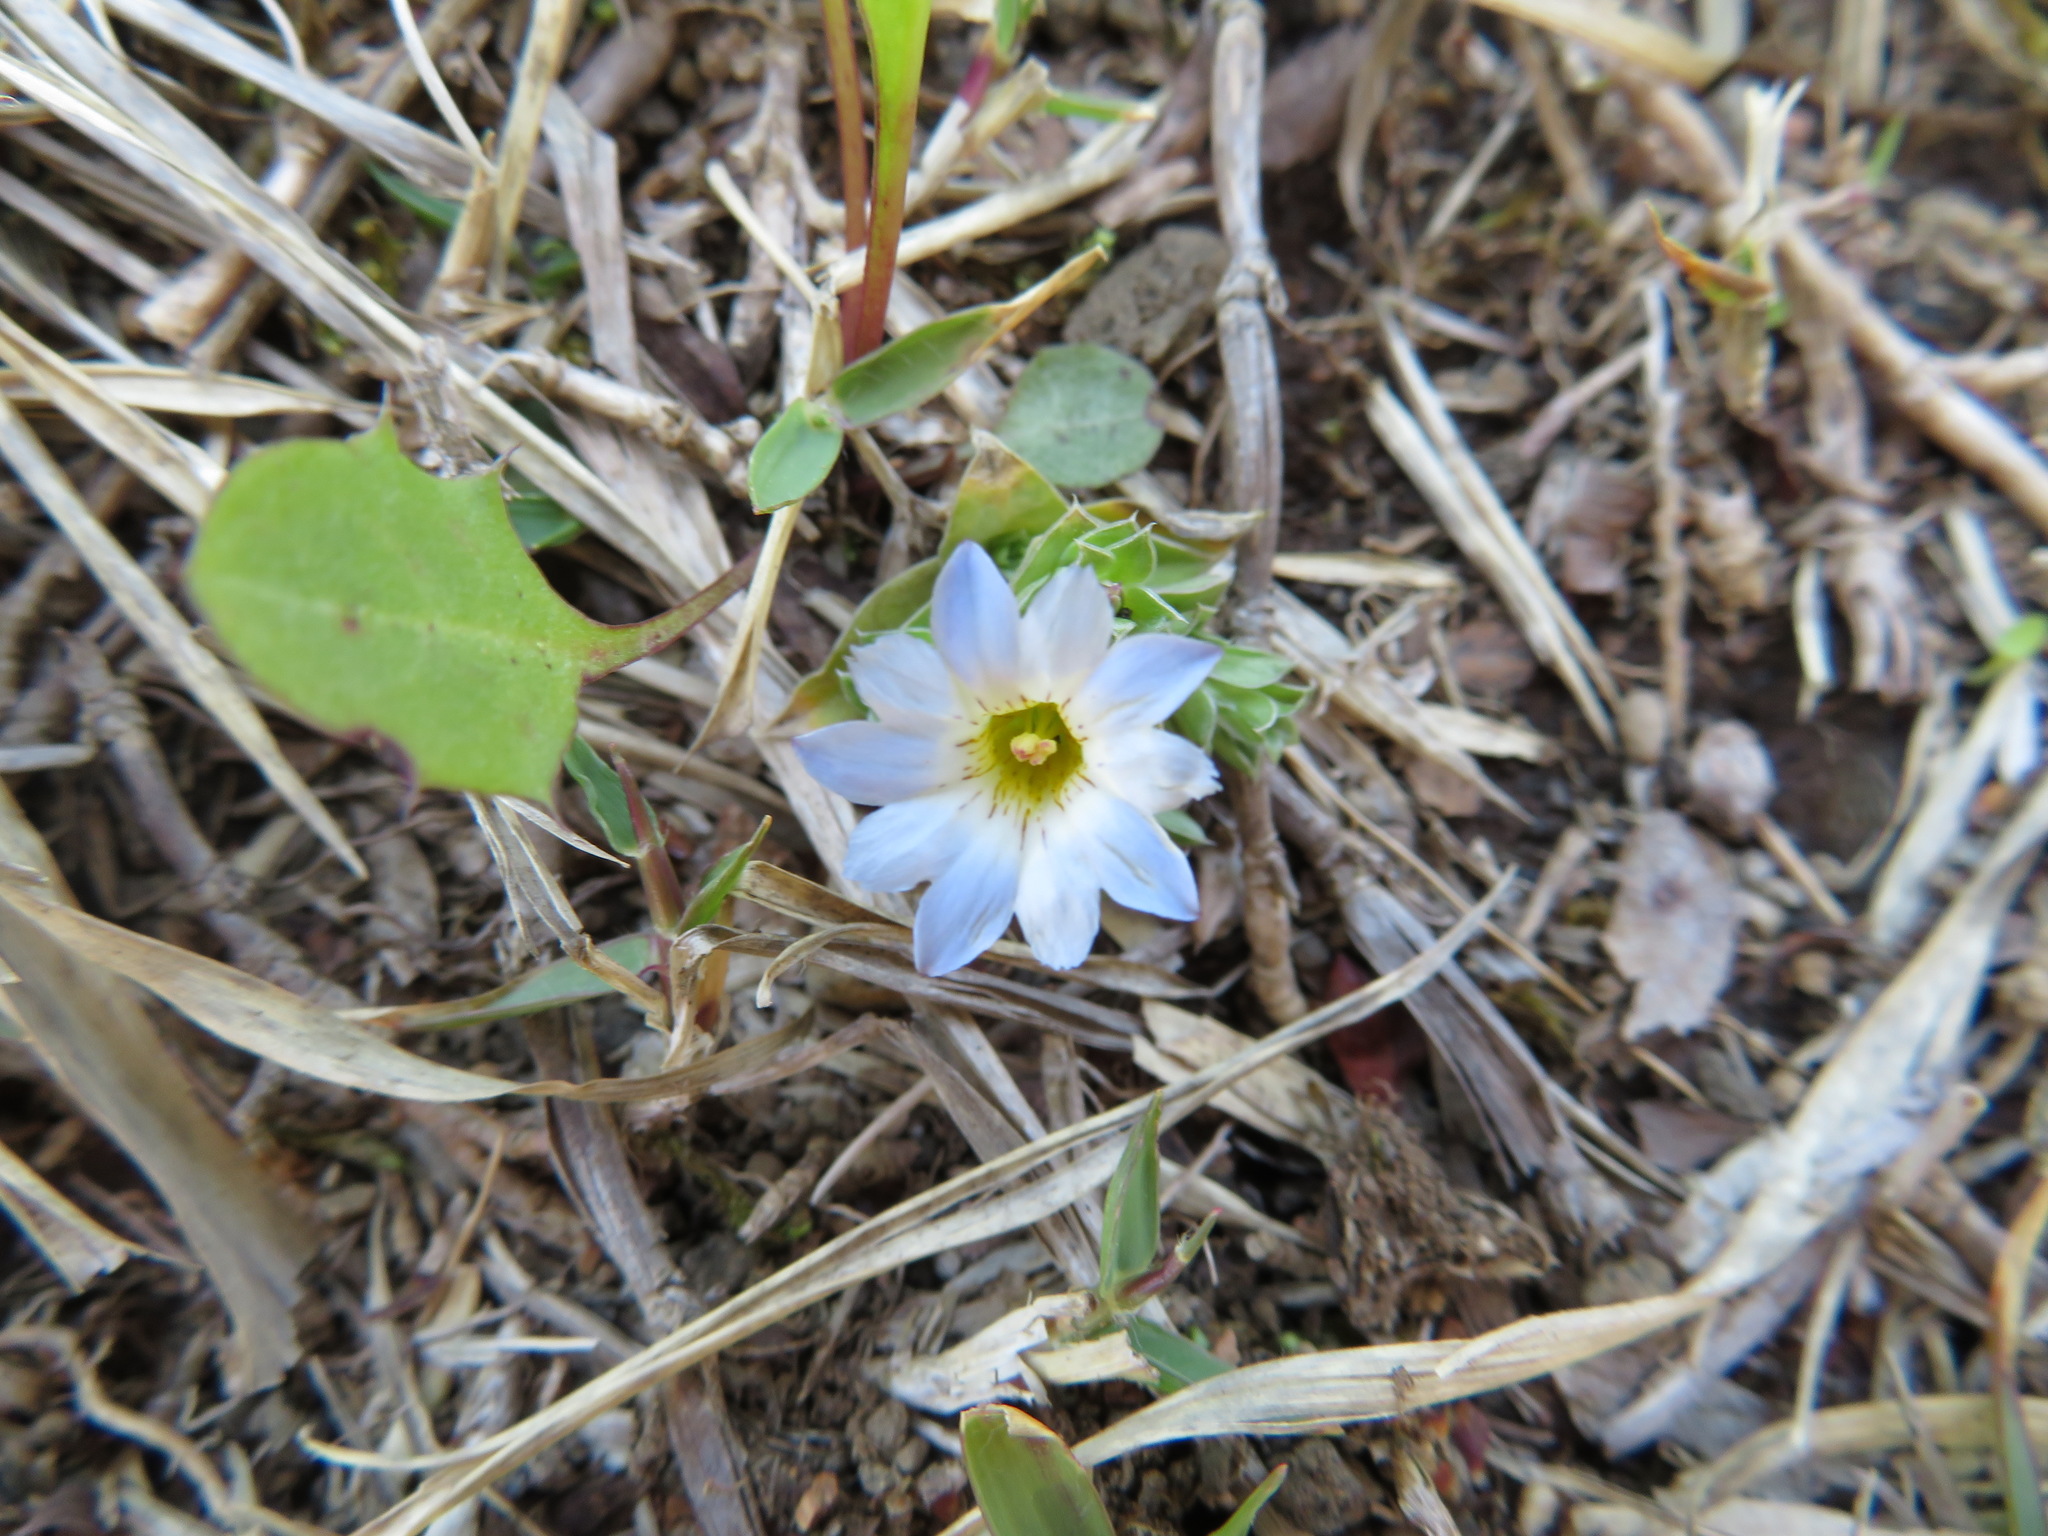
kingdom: Plantae
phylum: Tracheophyta
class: Magnoliopsida
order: Gentianales
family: Gentianaceae
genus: Gentiana
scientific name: Gentiana squarrosa
